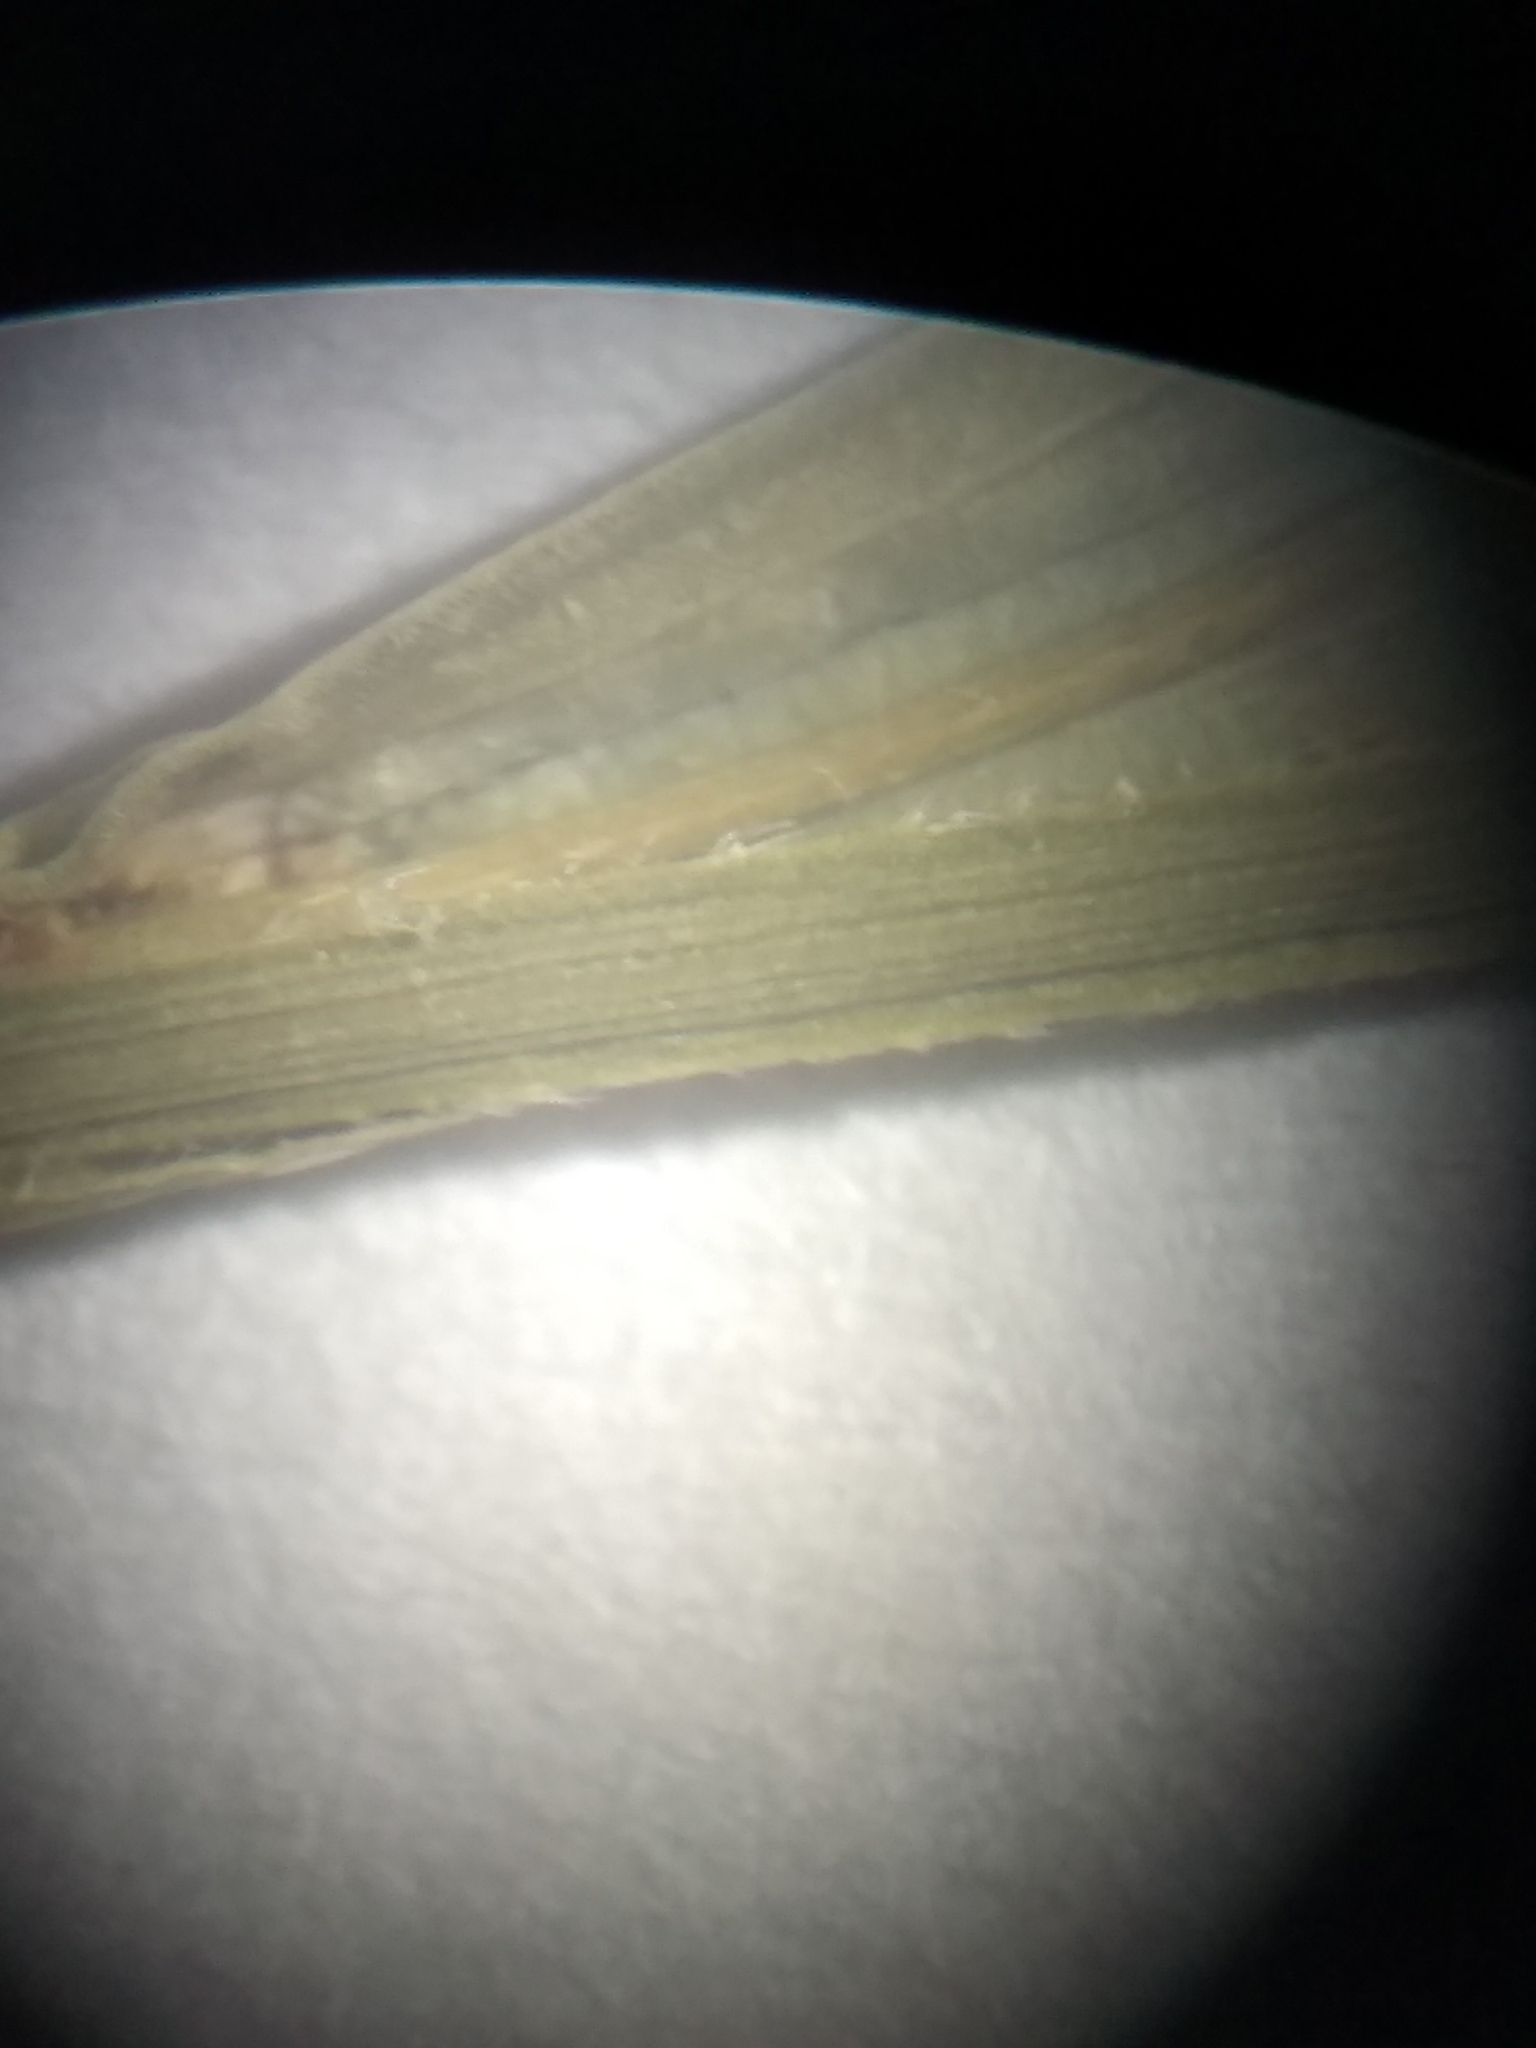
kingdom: Plantae
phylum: Tracheophyta
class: Liliopsida
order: Poales
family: Cyperaceae
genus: Carex
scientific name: Carex pallescens
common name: Pale sedge
